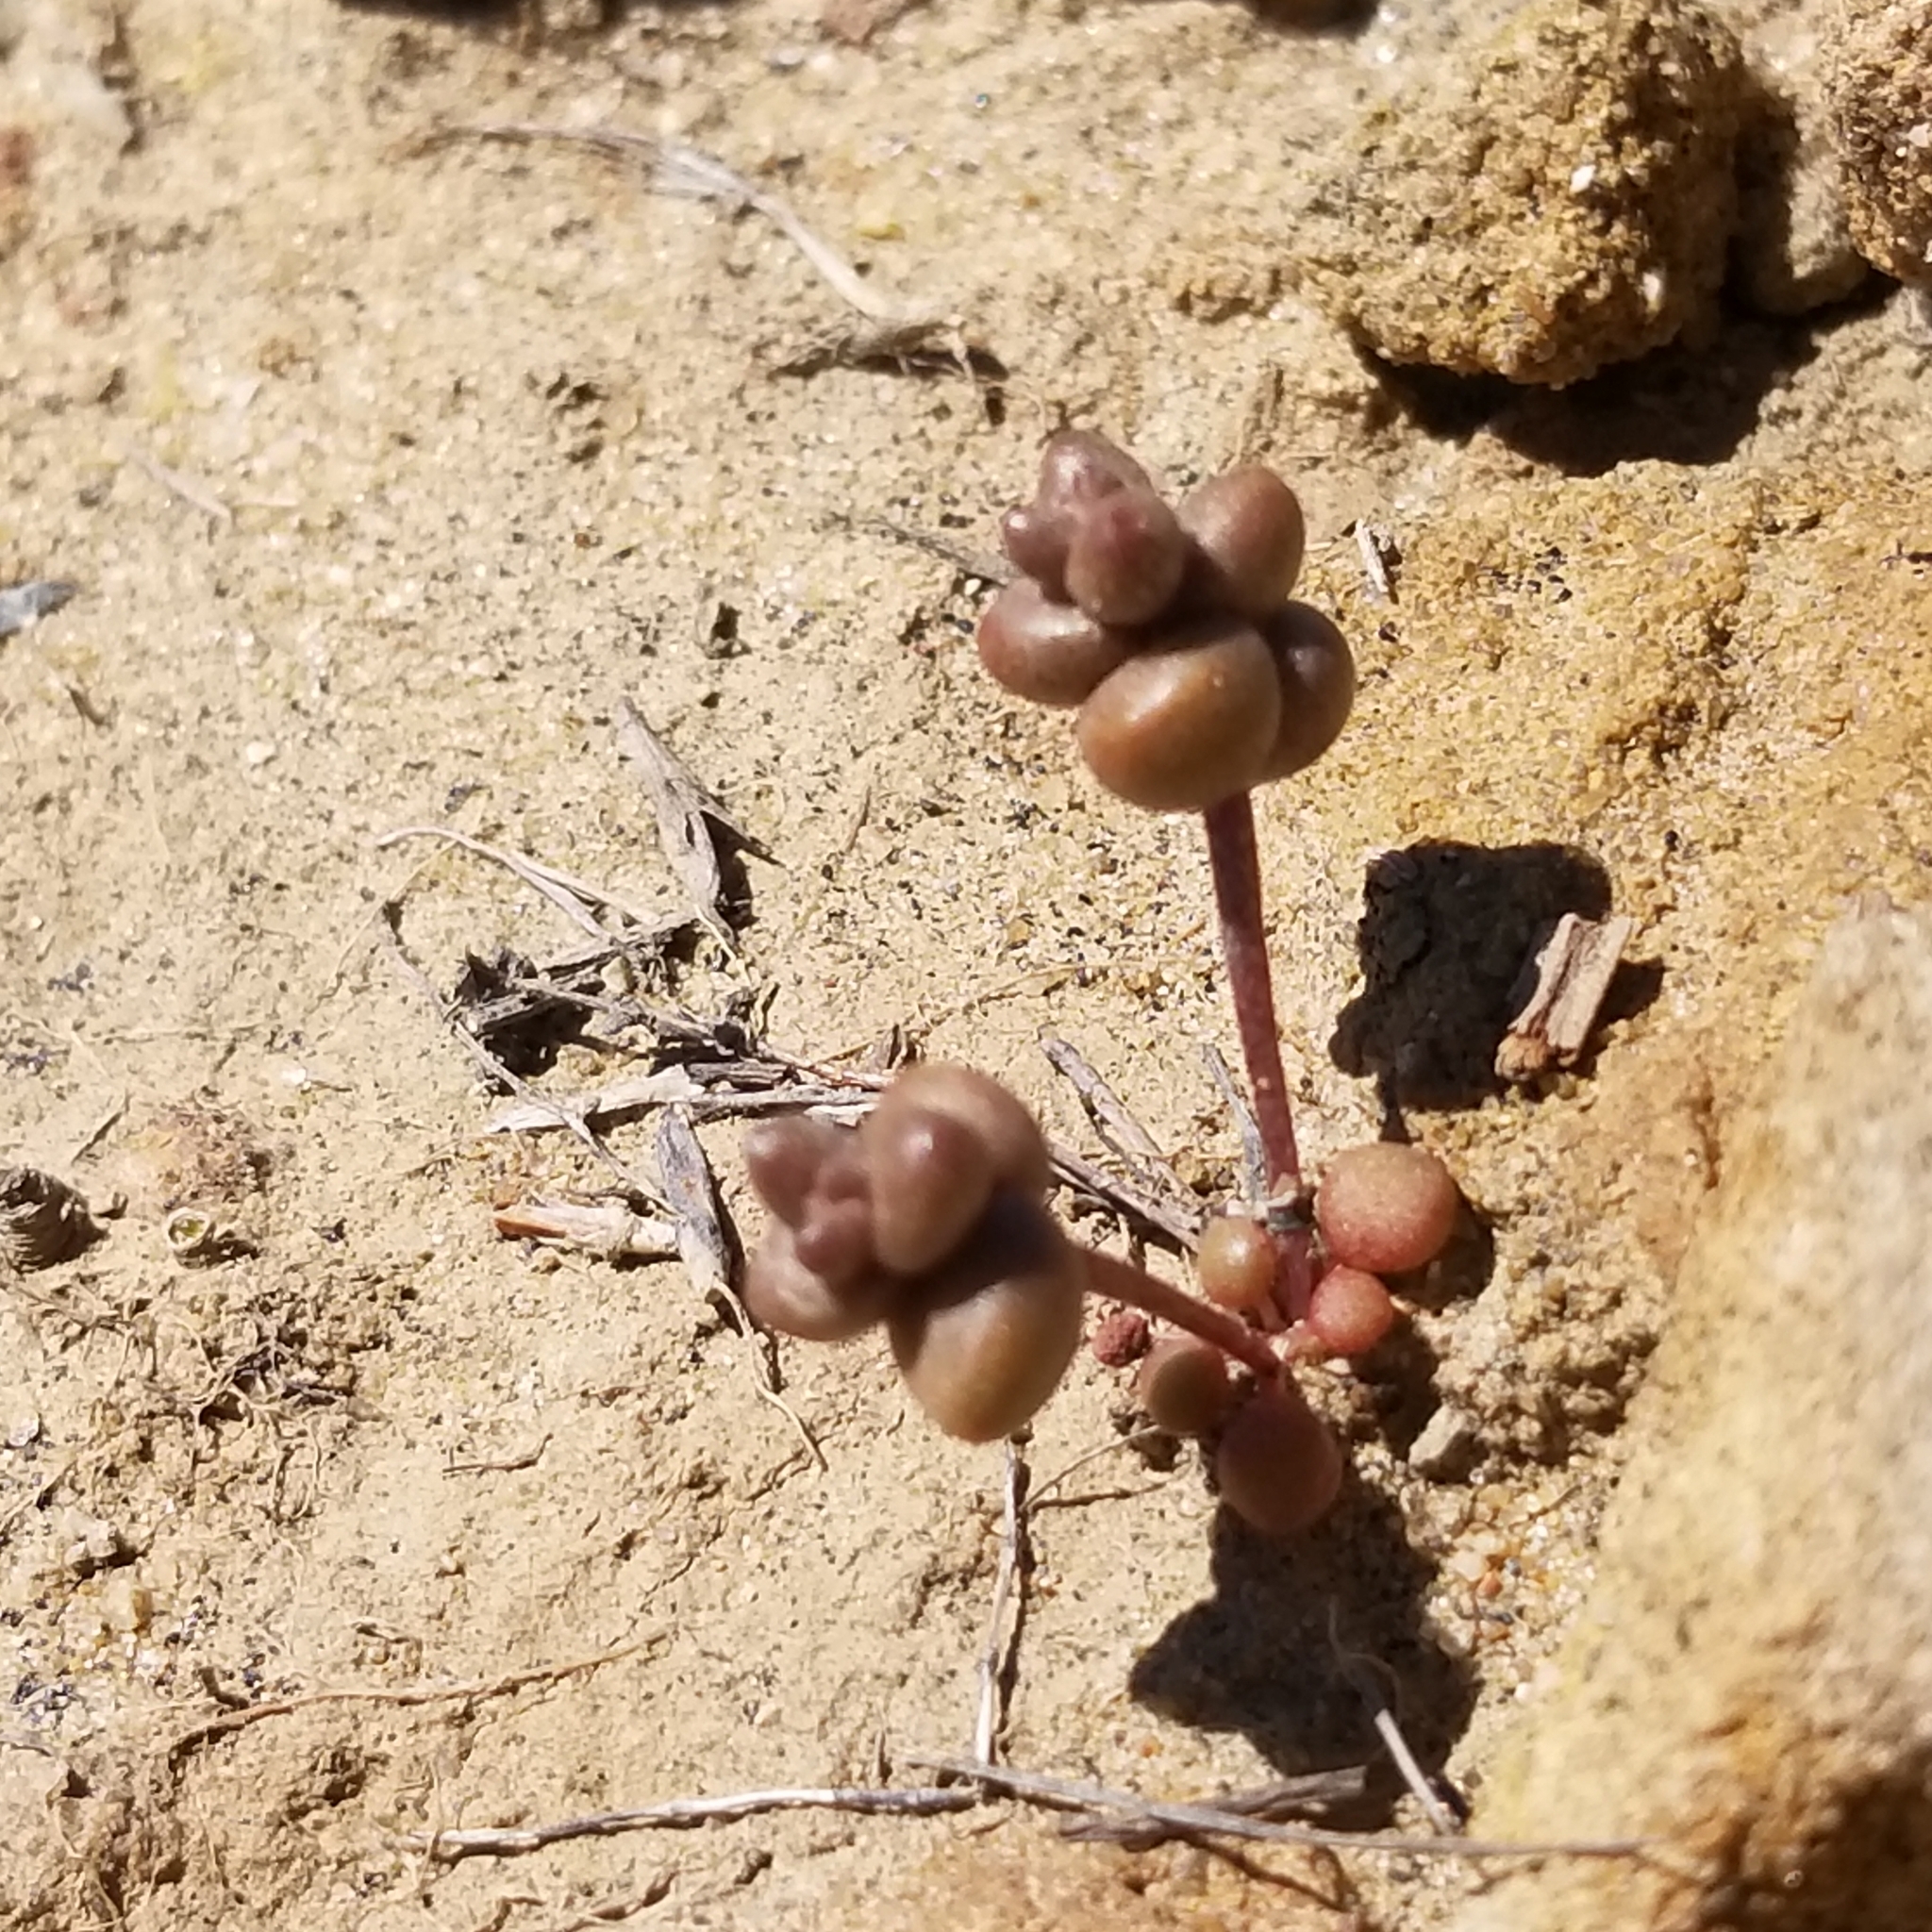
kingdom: Plantae
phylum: Tracheophyta
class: Magnoliopsida
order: Saxifragales
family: Crassulaceae
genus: Dudleya
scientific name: Dudleya blochmaniae
